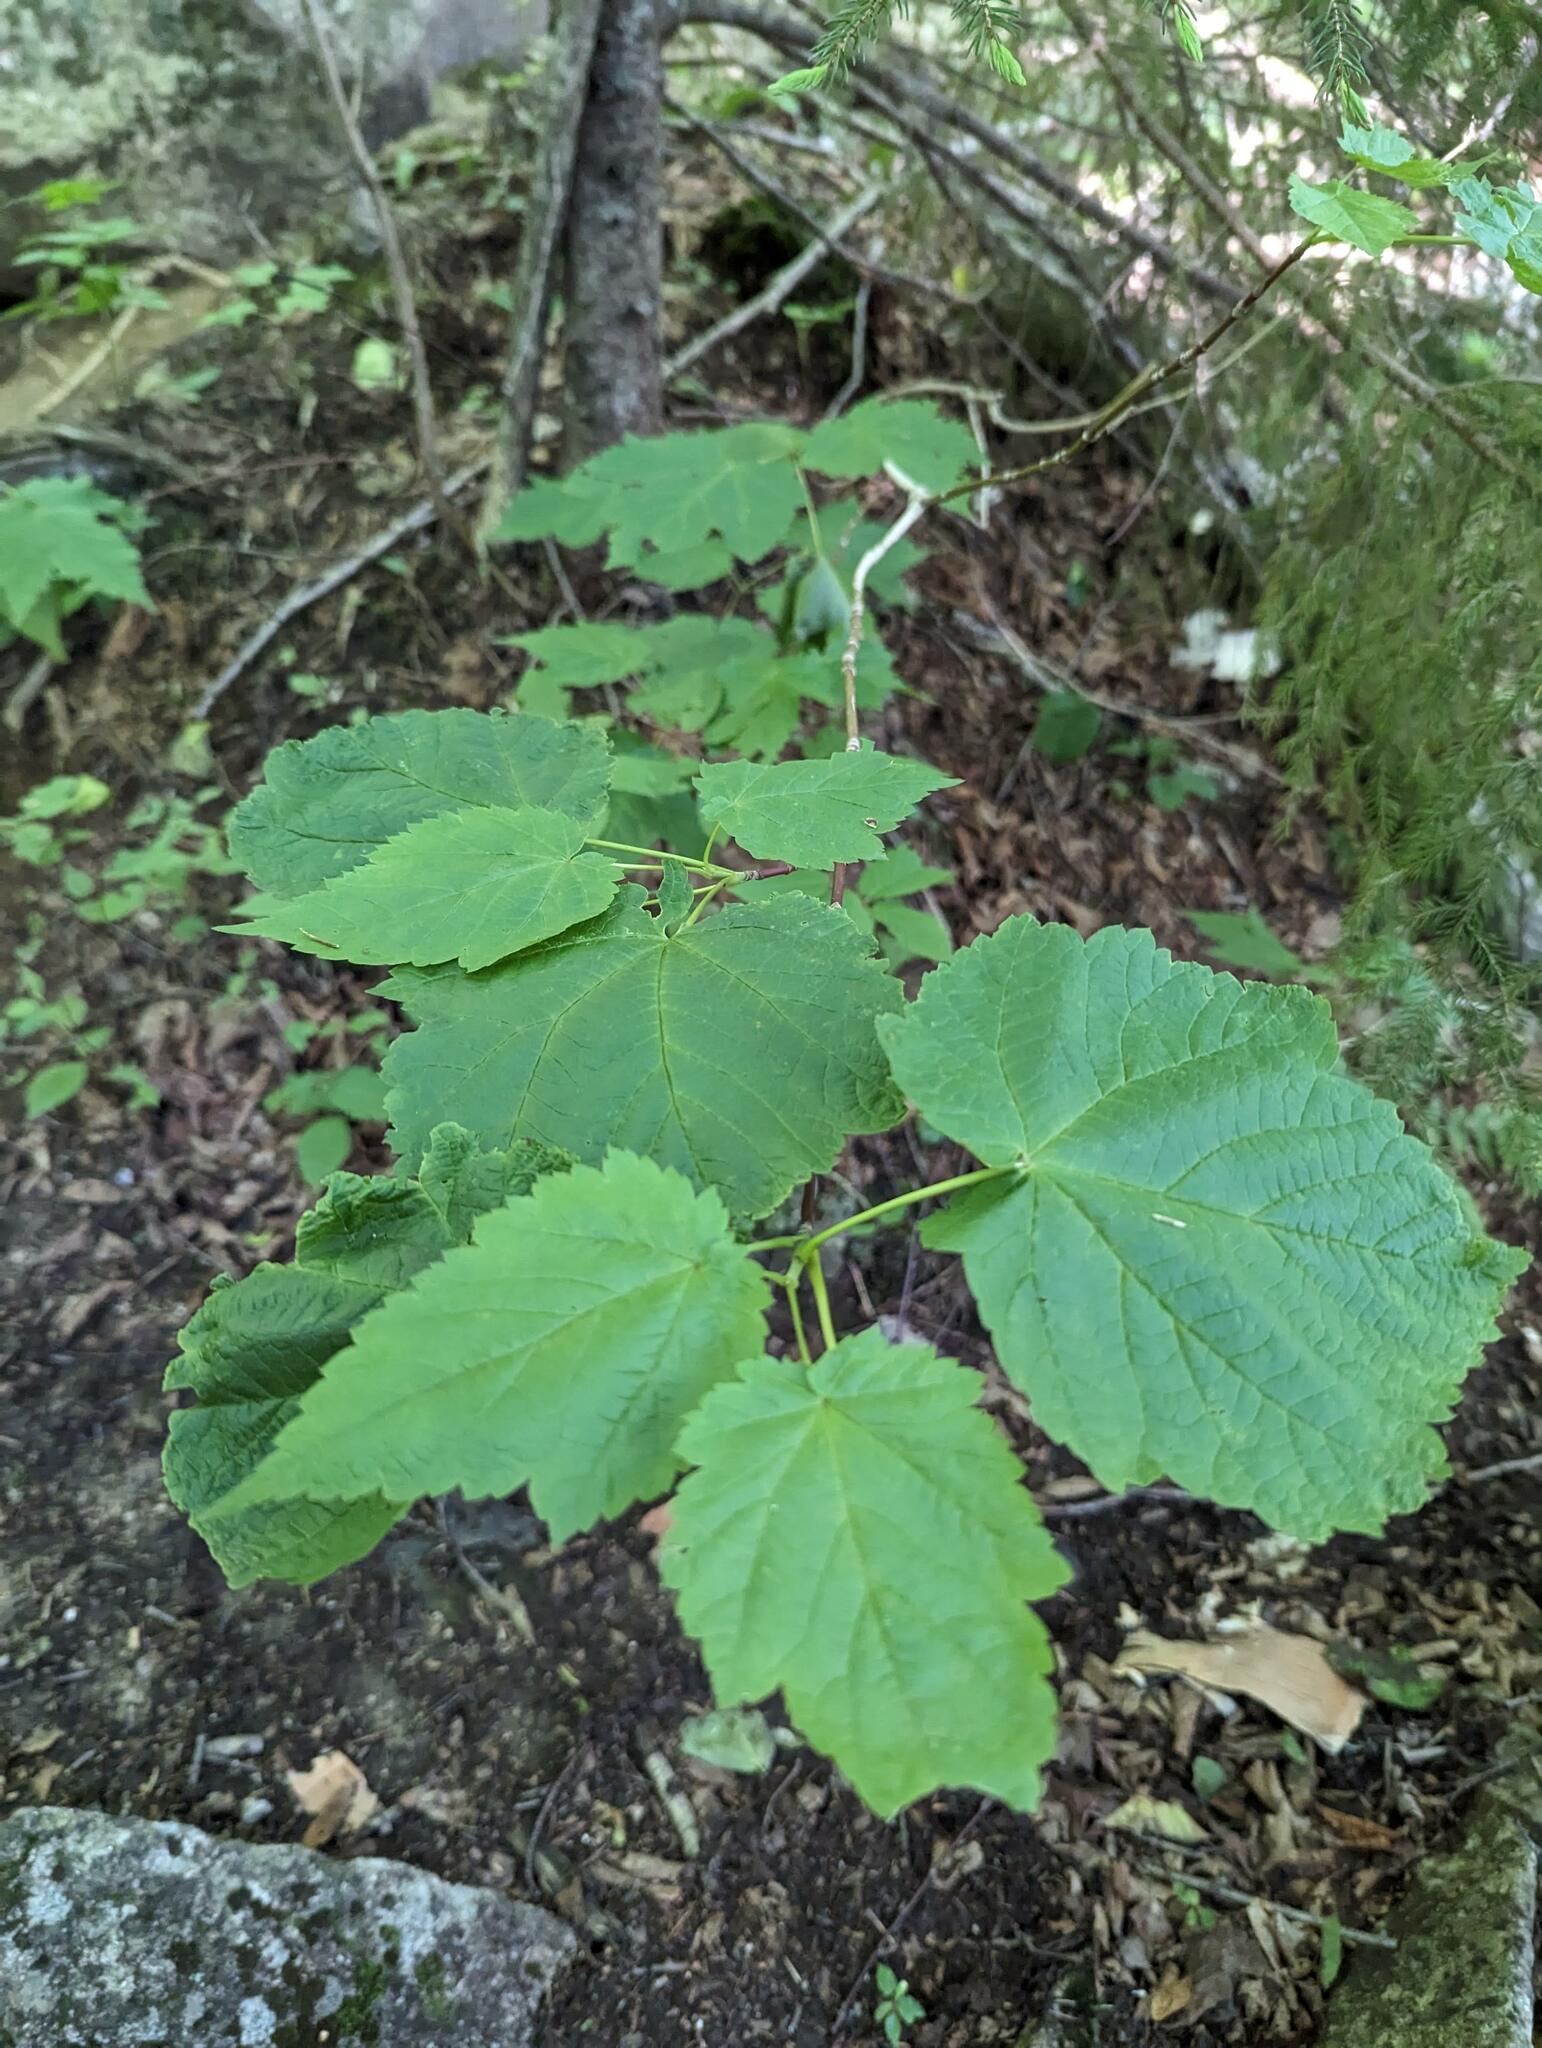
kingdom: Plantae
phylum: Tracheophyta
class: Magnoliopsida
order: Sapindales
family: Sapindaceae
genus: Acer
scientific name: Acer spicatum
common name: Mountain maple
